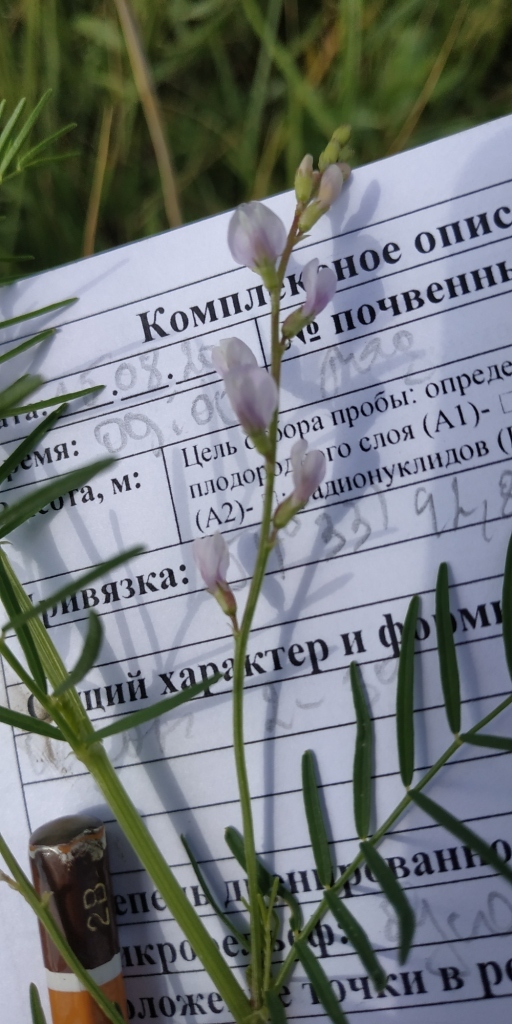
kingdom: Plantae
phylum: Tracheophyta
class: Magnoliopsida
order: Fabales
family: Fabaceae
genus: Astragalus
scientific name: Astragalus sulcatus
